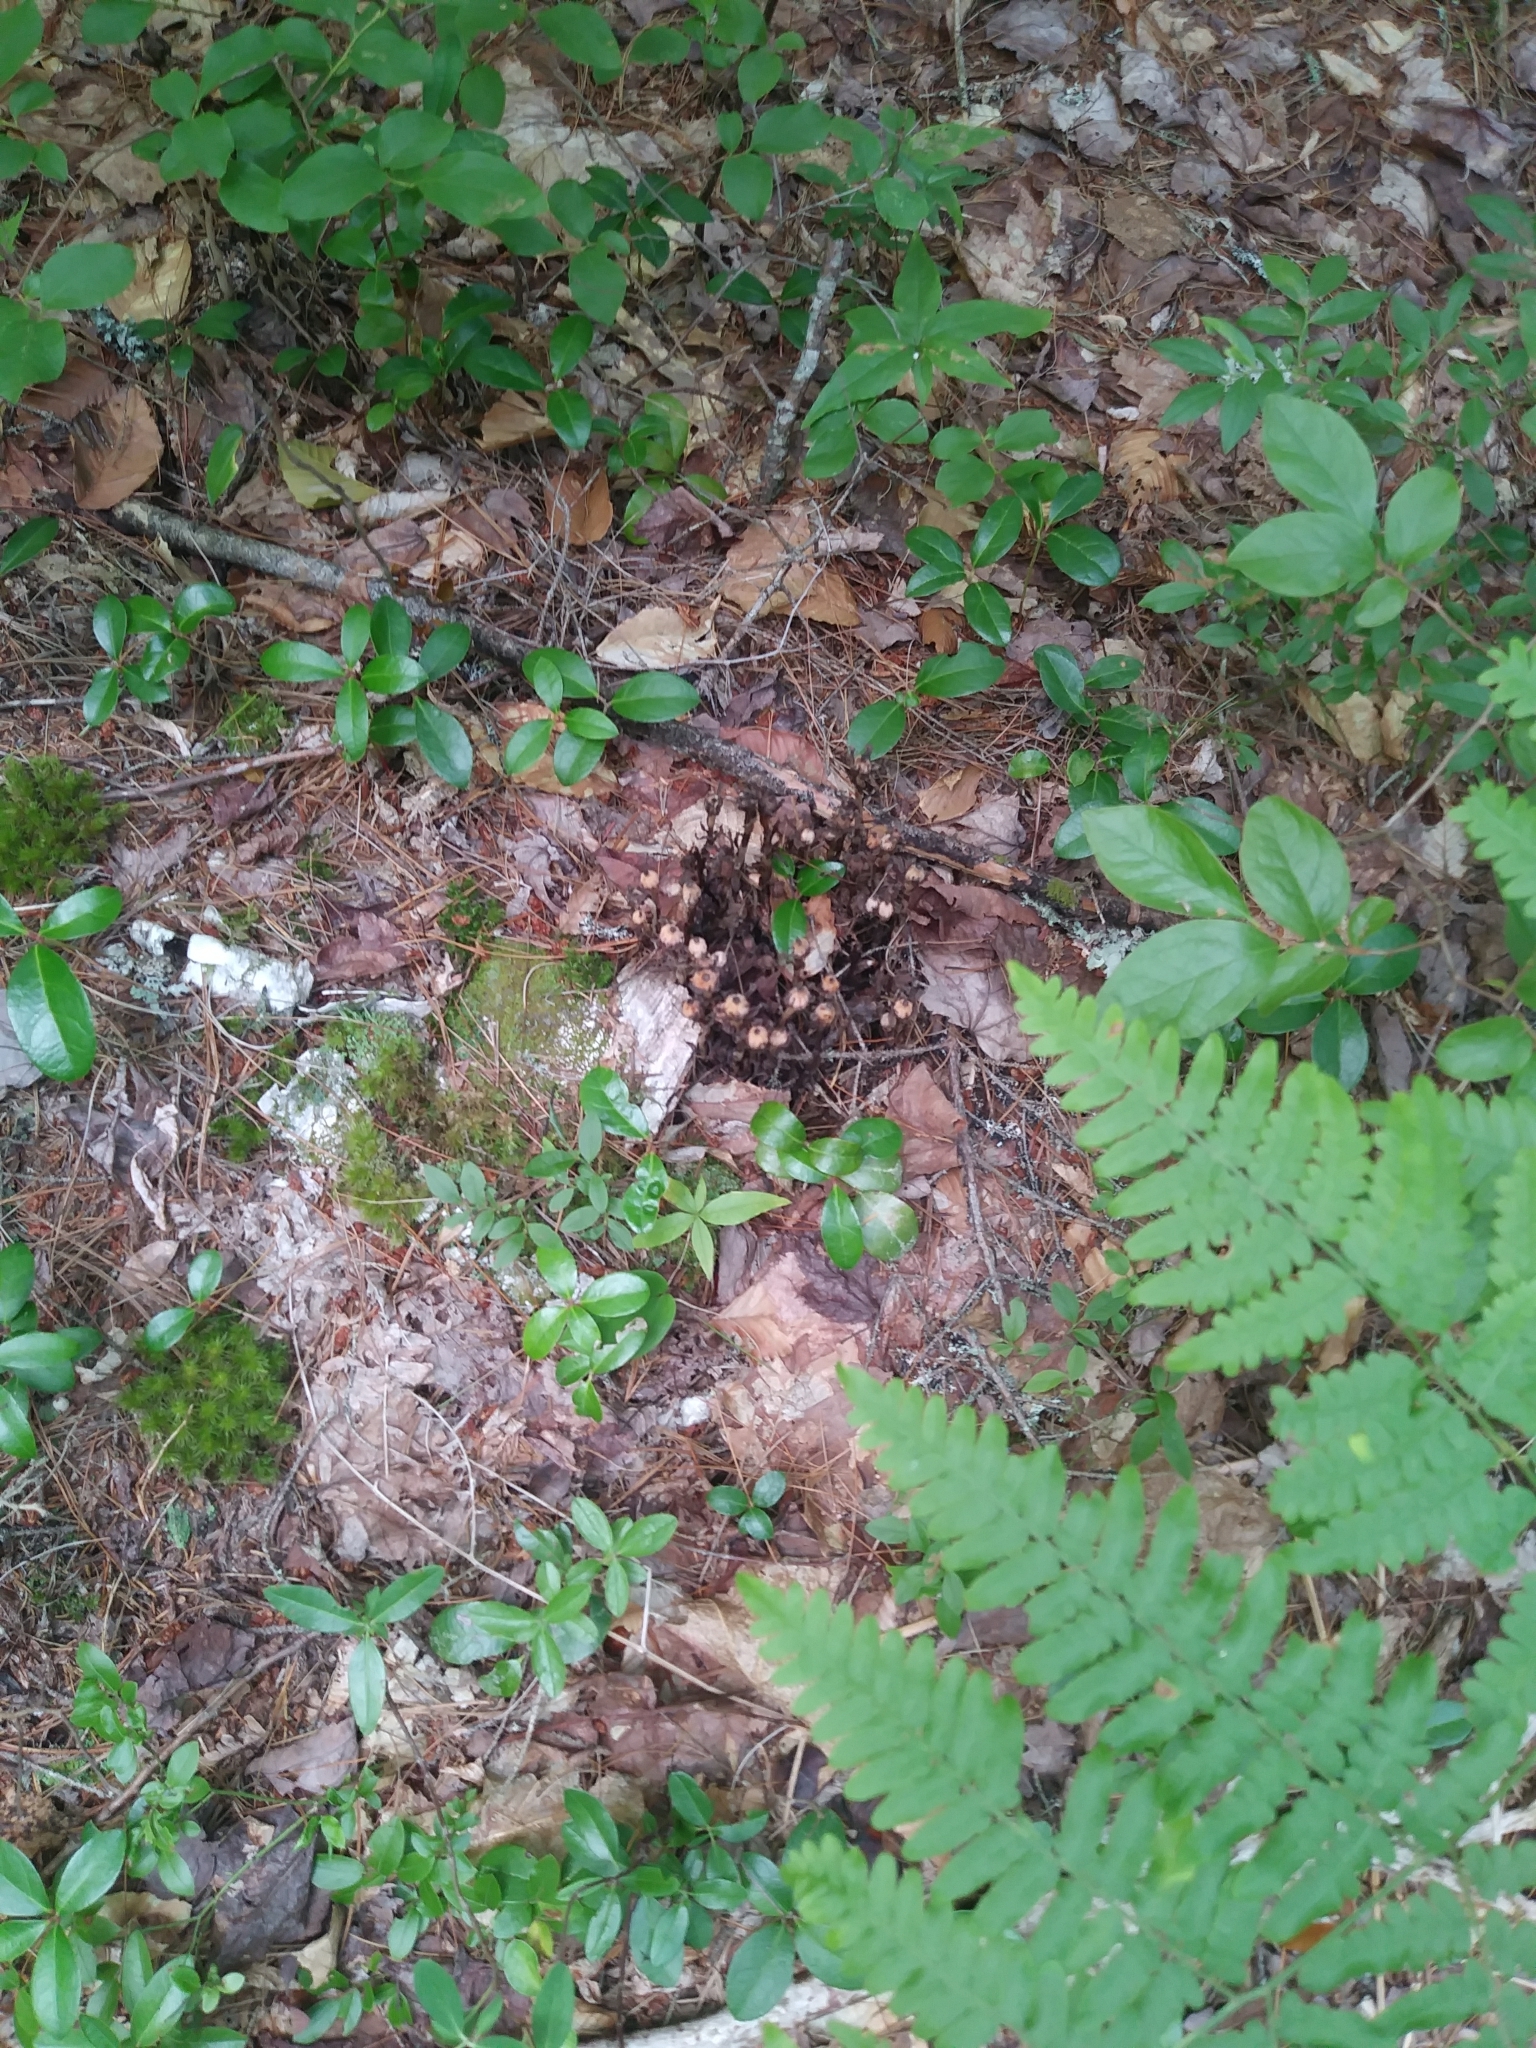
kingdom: Plantae
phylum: Tracheophyta
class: Magnoliopsida
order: Ericales
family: Ericaceae
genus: Monotropa
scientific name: Monotropa uniflora
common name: Convulsion root
